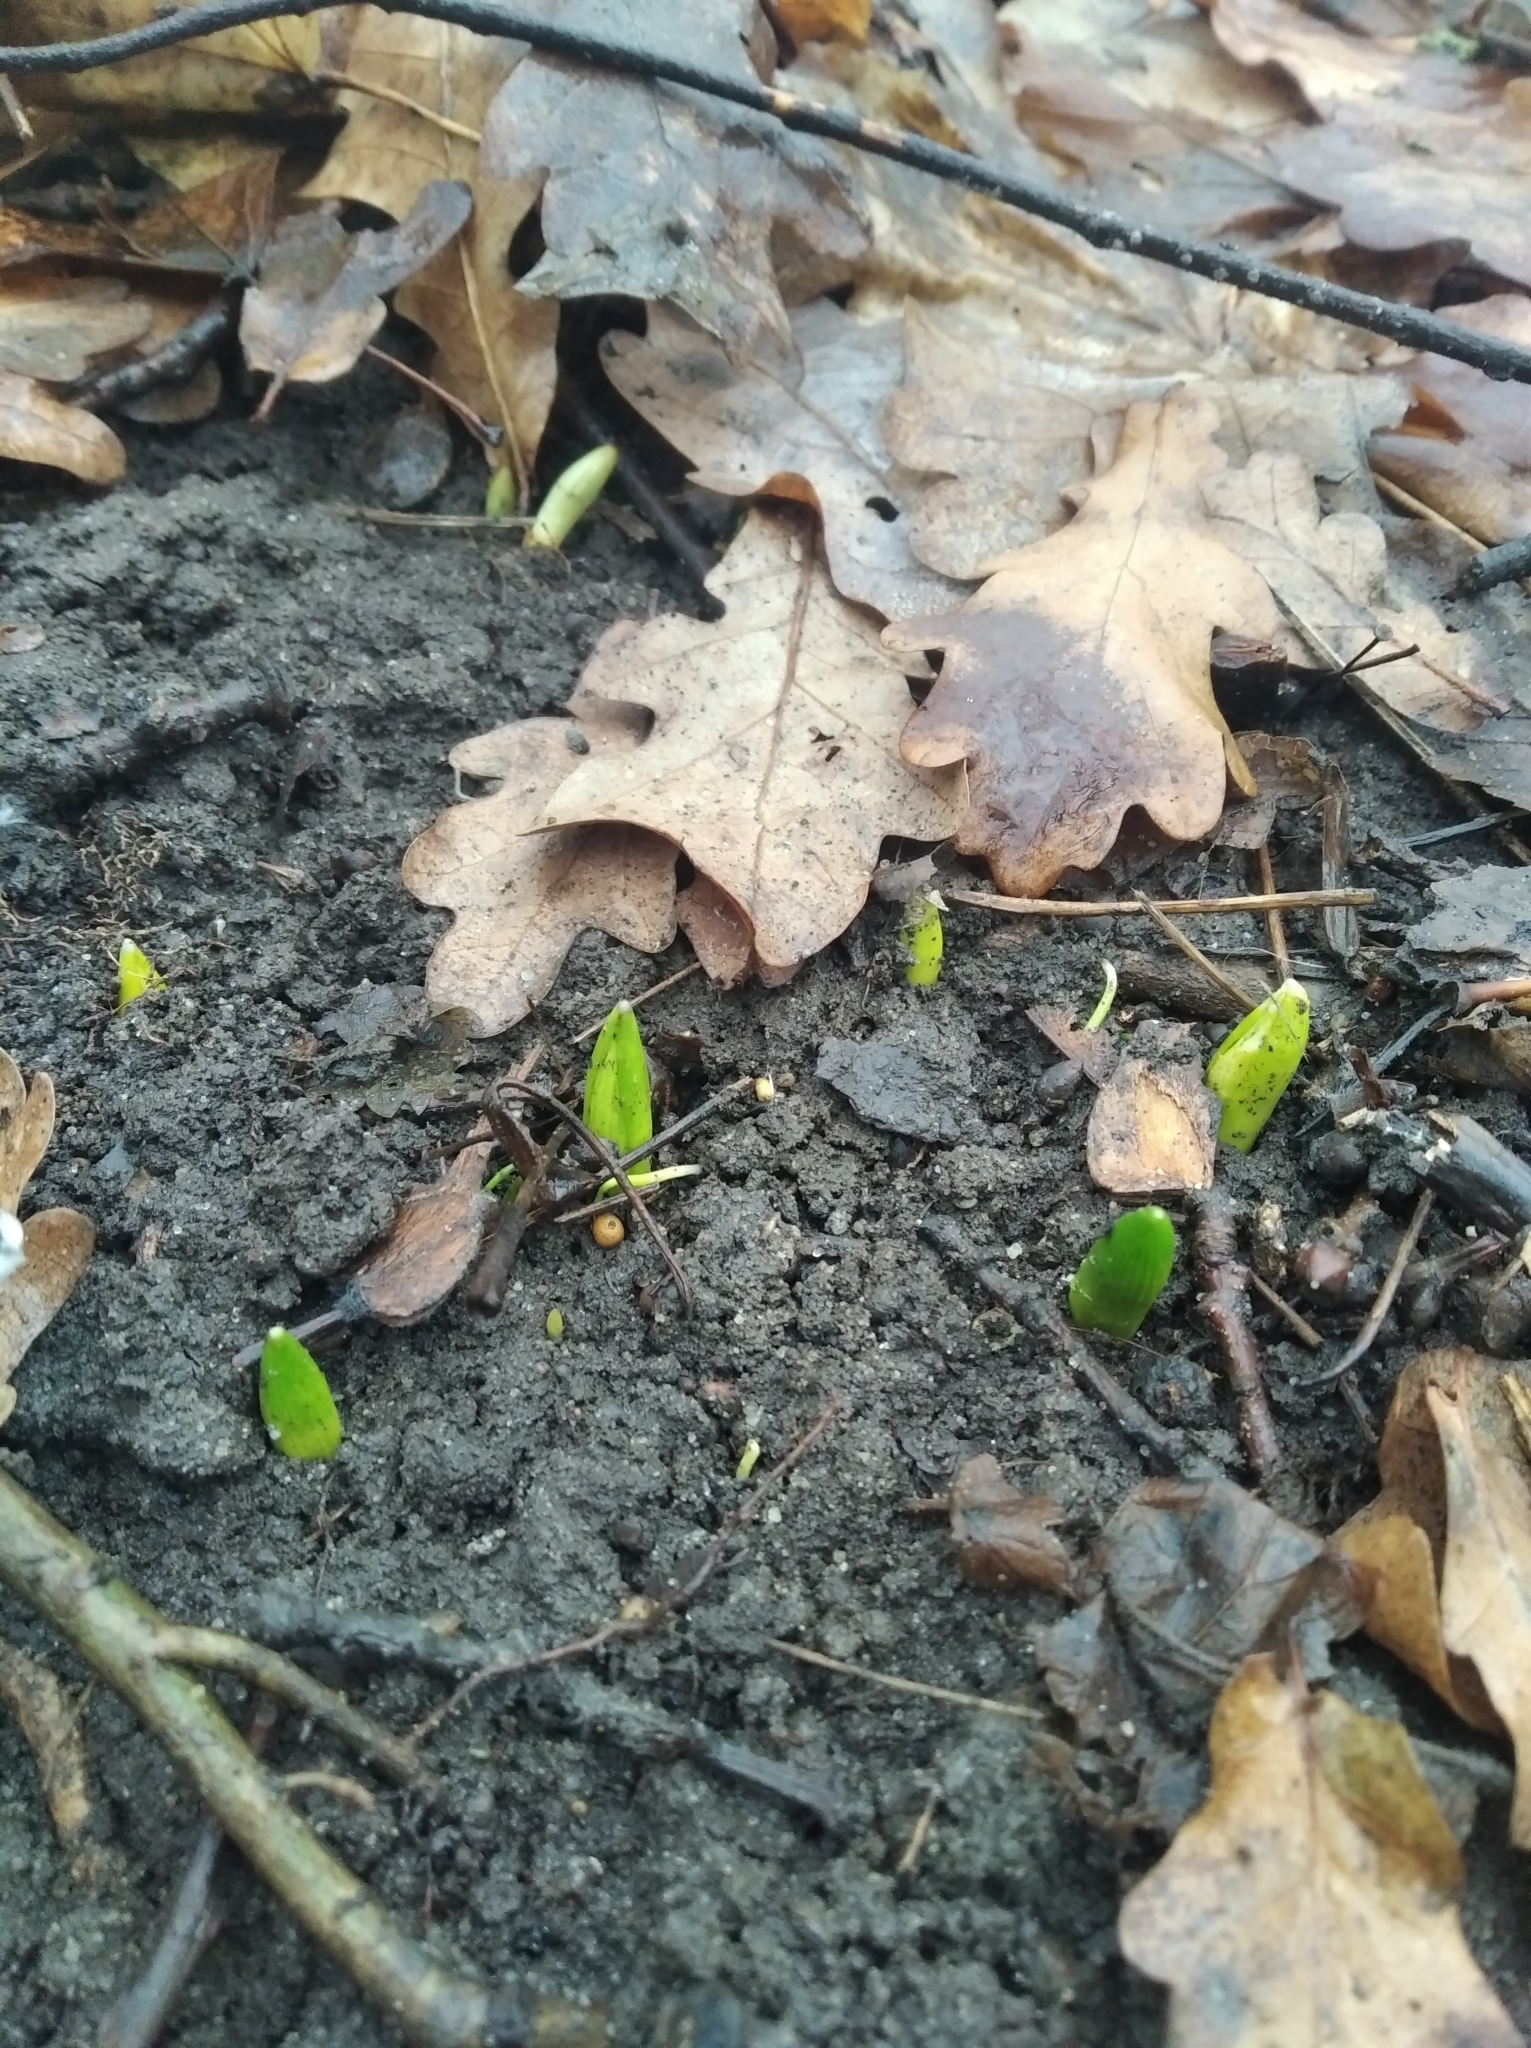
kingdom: Plantae
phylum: Tracheophyta
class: Liliopsida
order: Asparagales
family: Asparagaceae
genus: Scilla
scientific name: Scilla siberica
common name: Siberian squill
